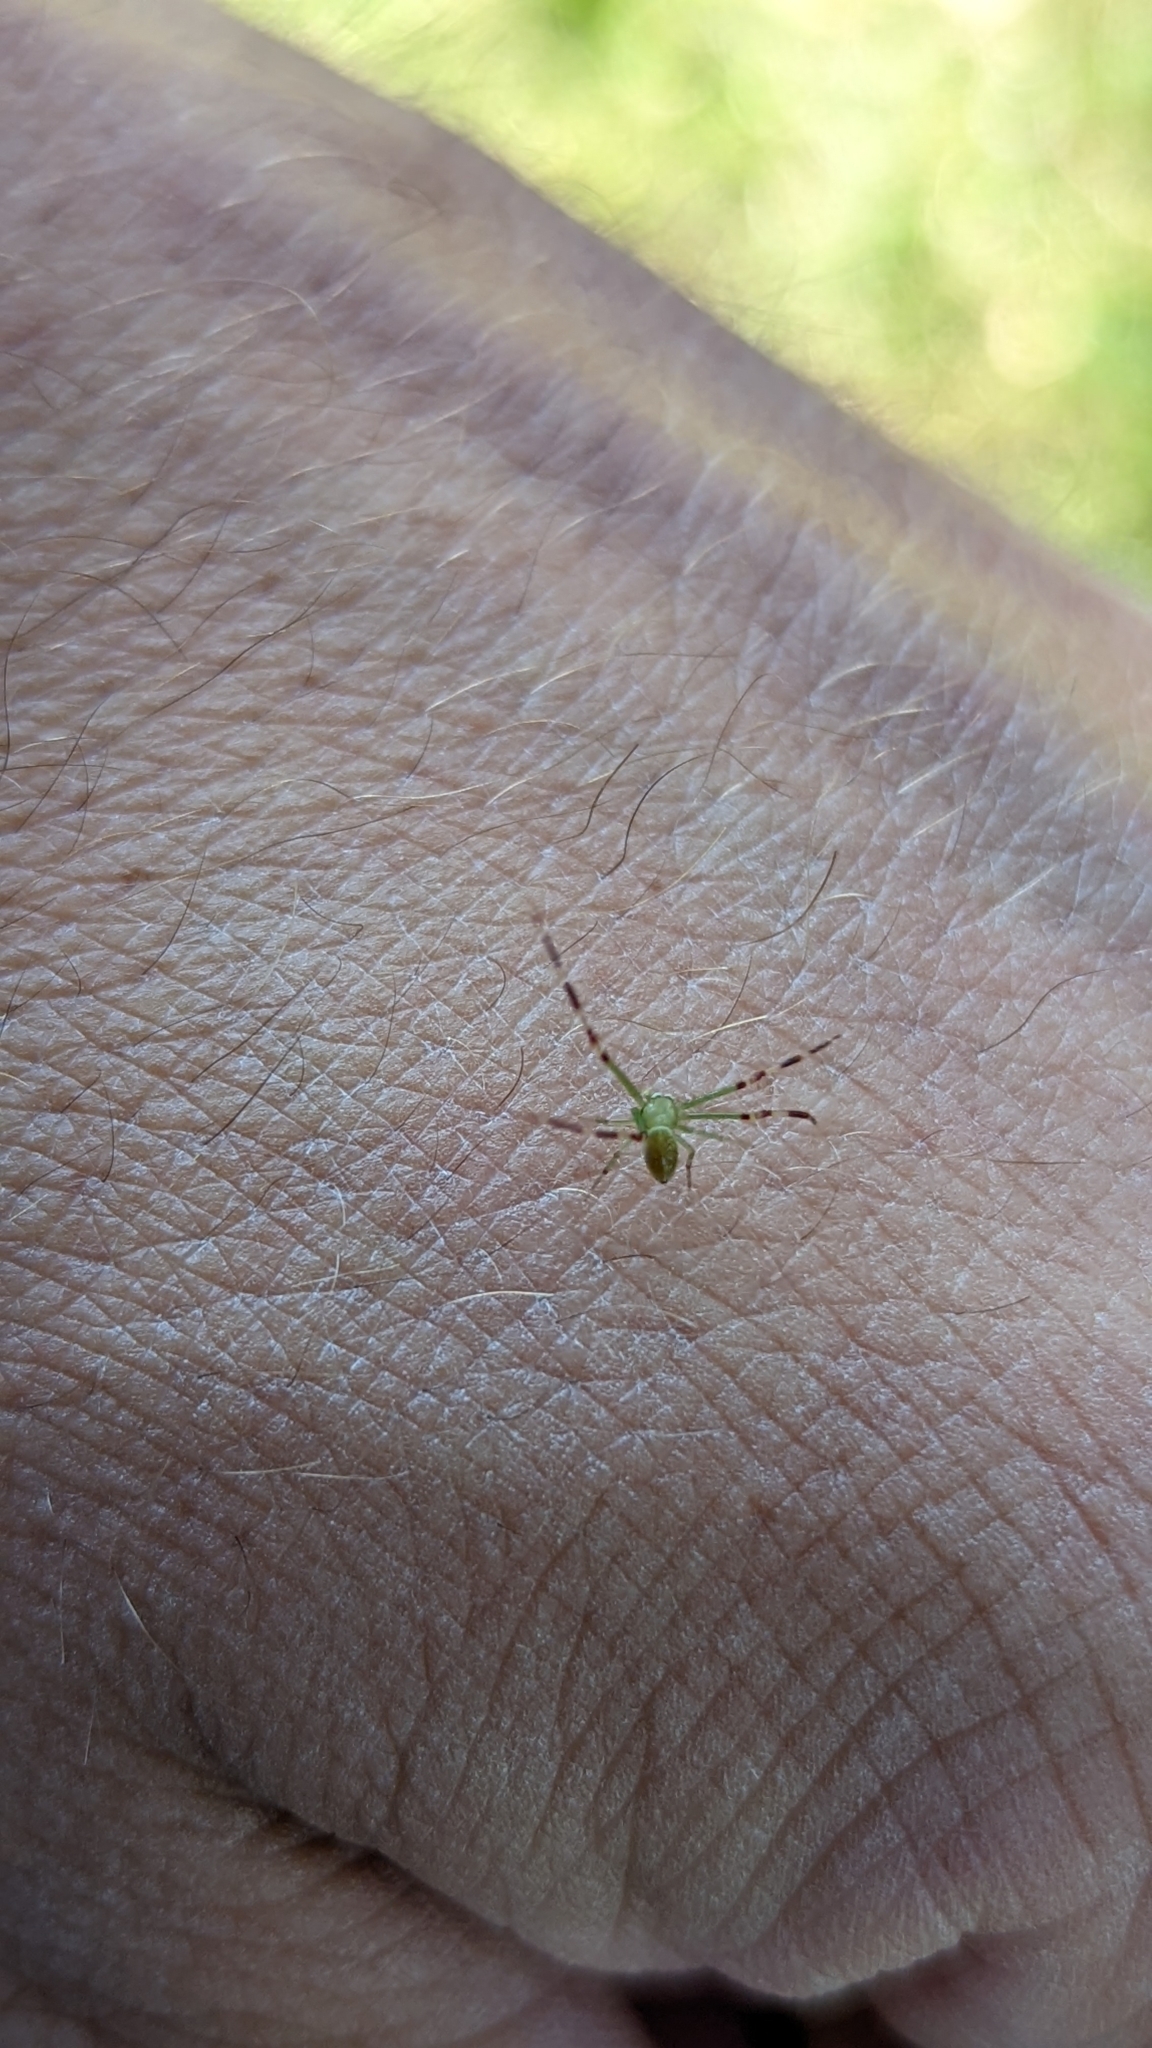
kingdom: Animalia
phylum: Arthropoda
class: Arachnida
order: Araneae
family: Thomisidae
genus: Misumessus
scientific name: Misumessus oblongus
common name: American green crab spider
